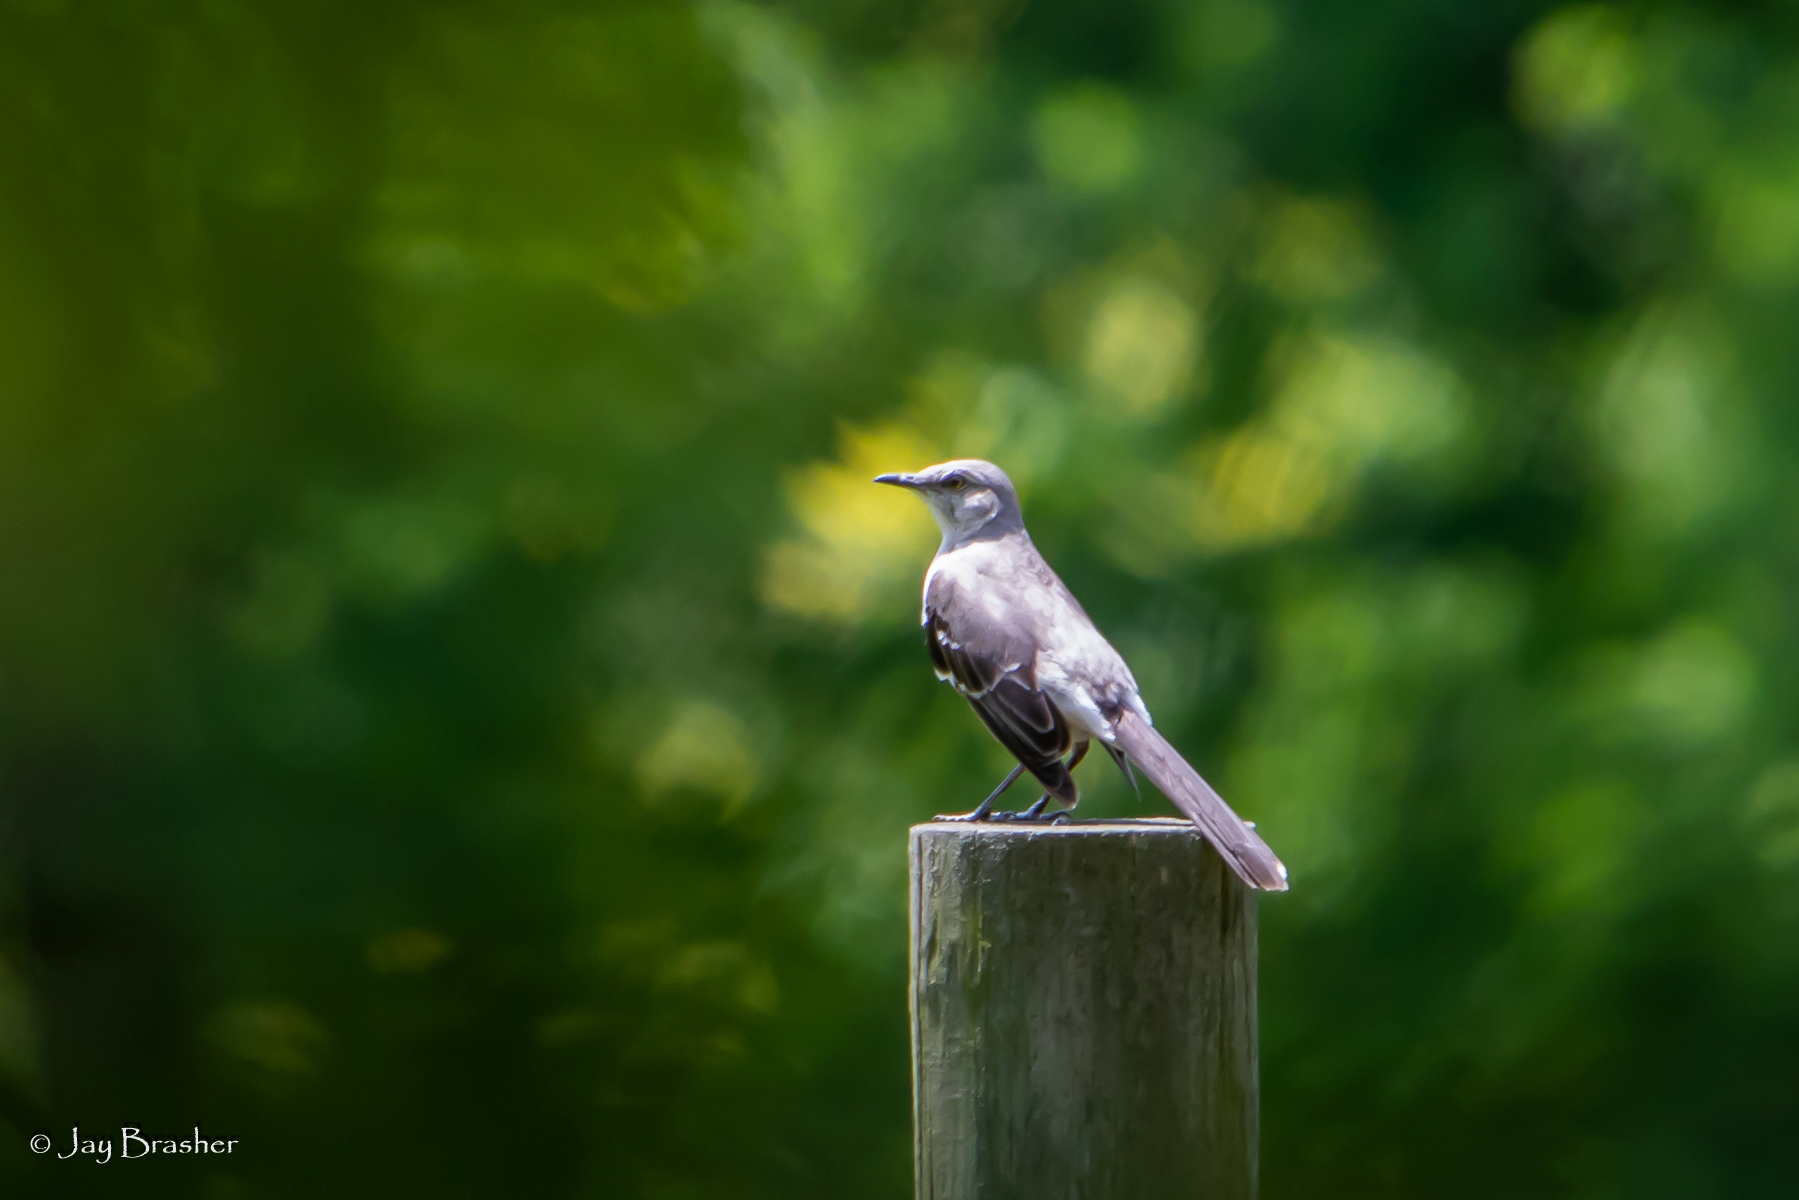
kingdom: Animalia
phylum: Chordata
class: Aves
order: Passeriformes
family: Mimidae
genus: Mimus
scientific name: Mimus polyglottos
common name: Northern mockingbird
